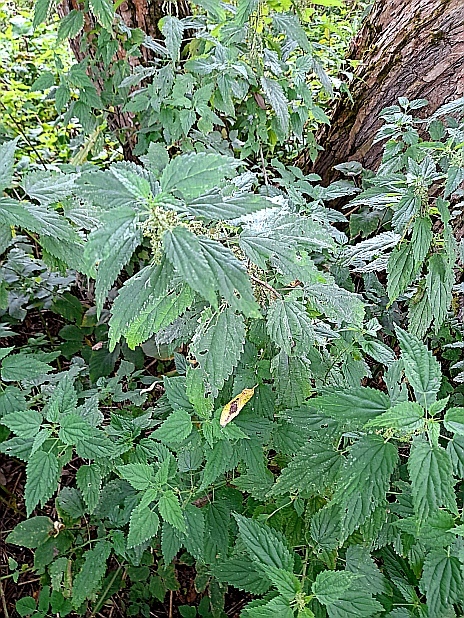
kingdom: Plantae
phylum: Tracheophyta
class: Magnoliopsida
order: Rosales
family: Urticaceae
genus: Urtica
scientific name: Urtica dioica
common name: Common nettle
